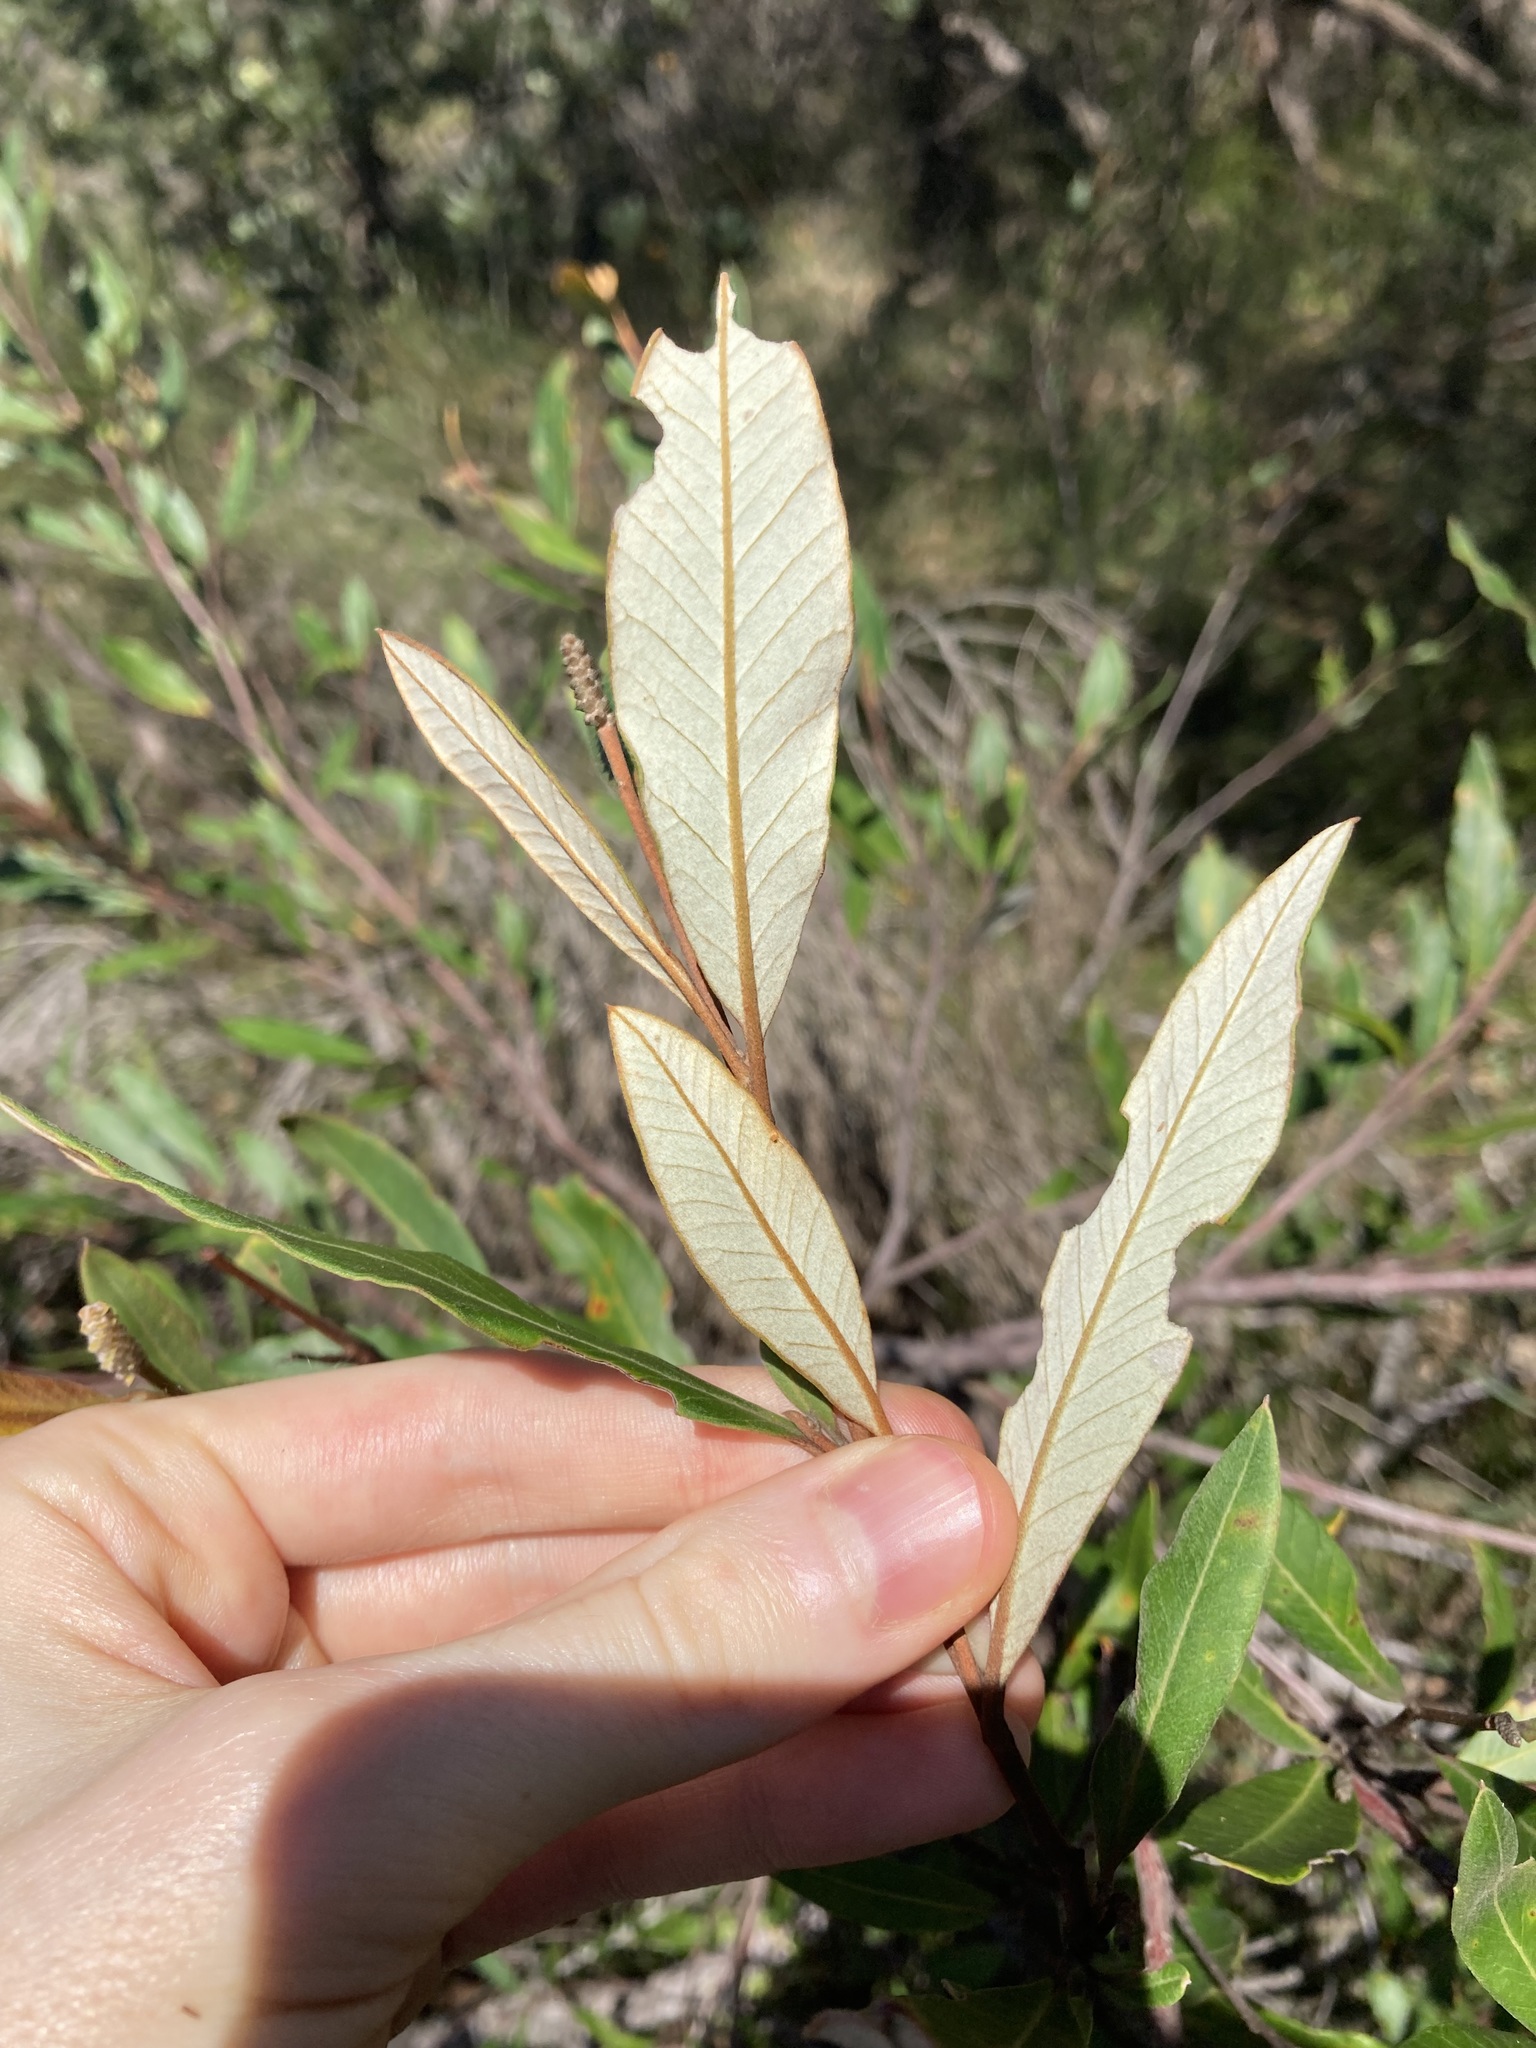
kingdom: Plantae
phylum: Tracheophyta
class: Magnoliopsida
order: Proteales
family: Proteaceae
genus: Grevillea
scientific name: Grevillea macleayana
